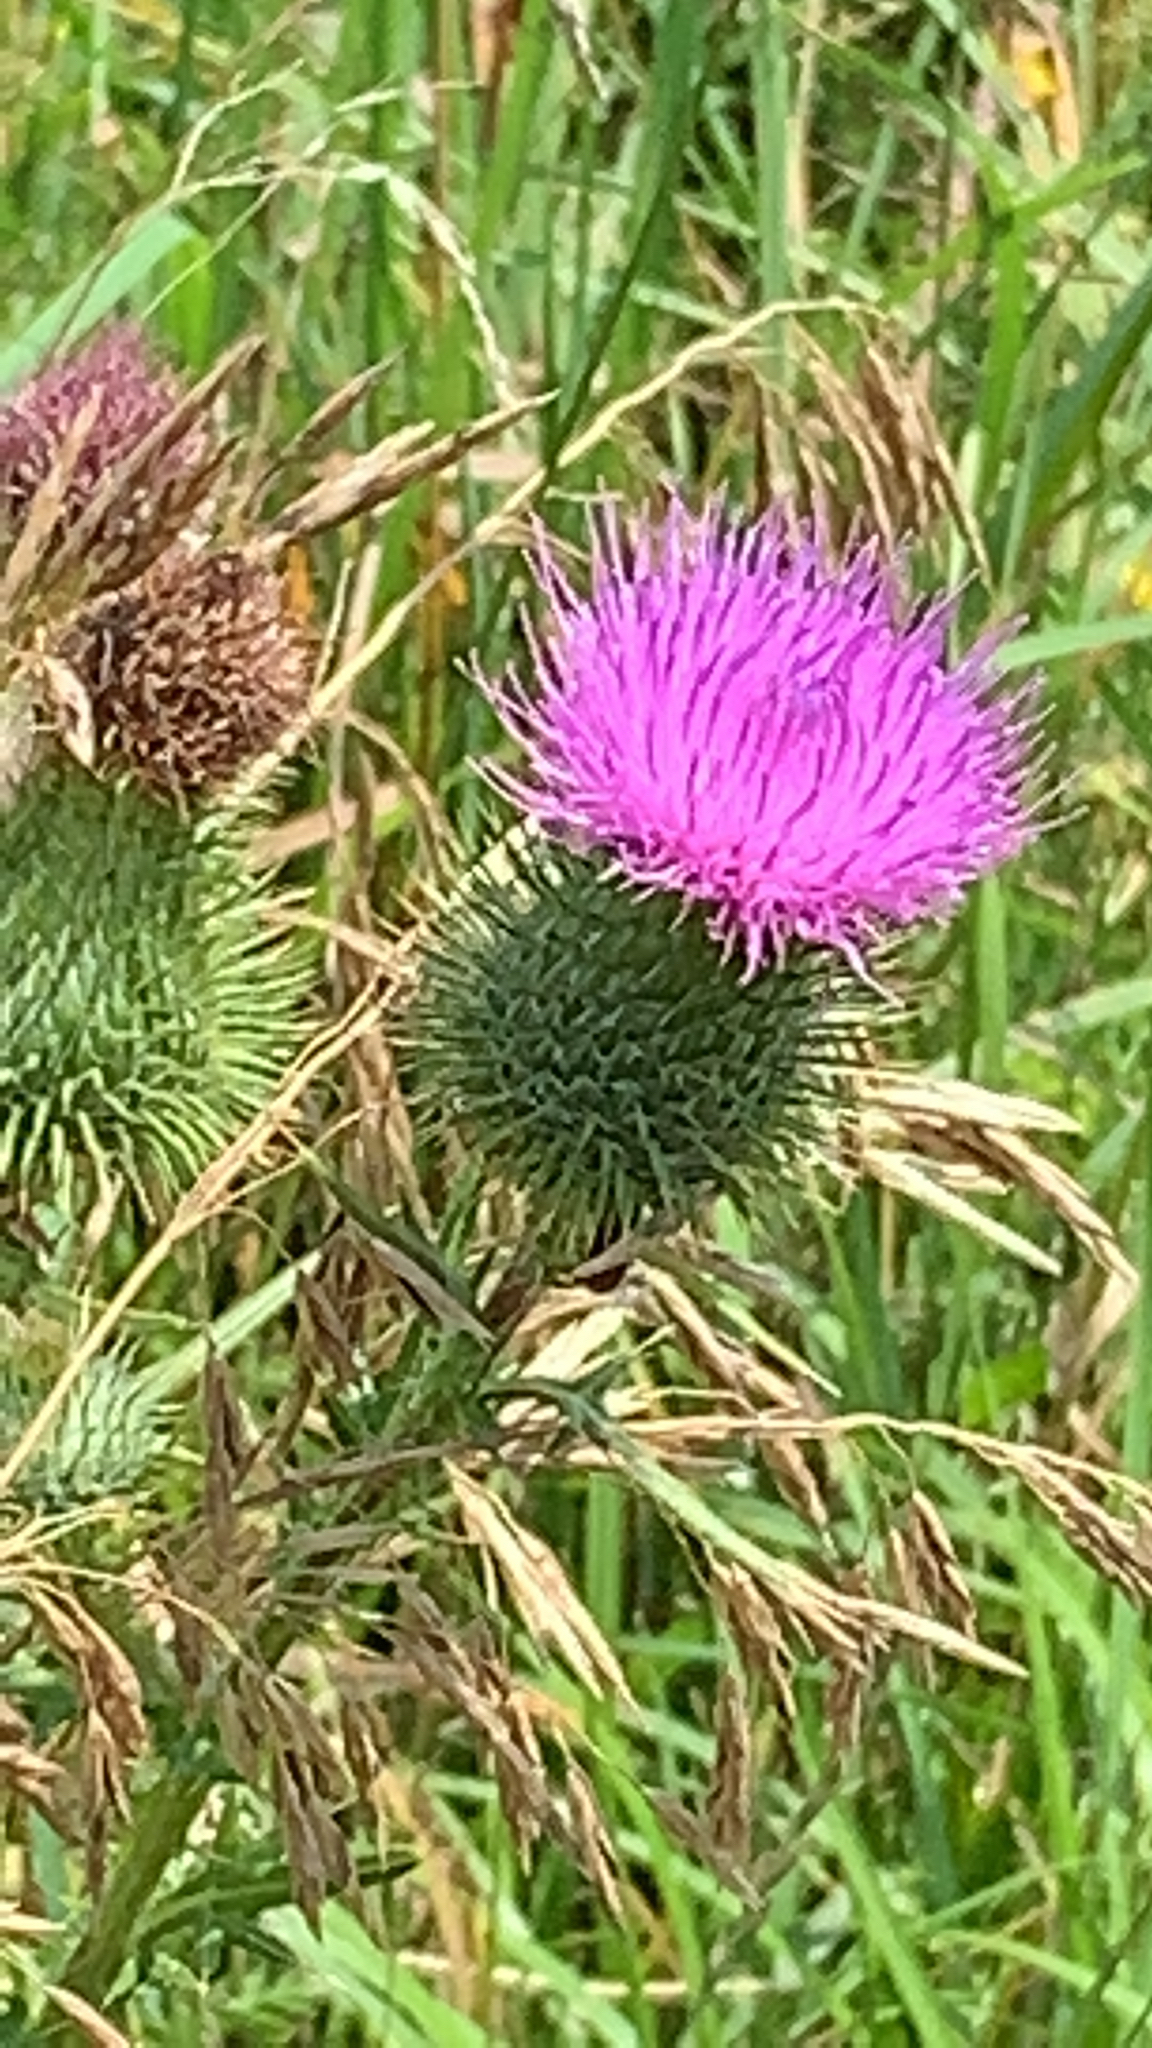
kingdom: Plantae
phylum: Tracheophyta
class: Magnoliopsida
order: Asterales
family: Asteraceae
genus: Cirsium
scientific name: Cirsium vulgare
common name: Bull thistle
